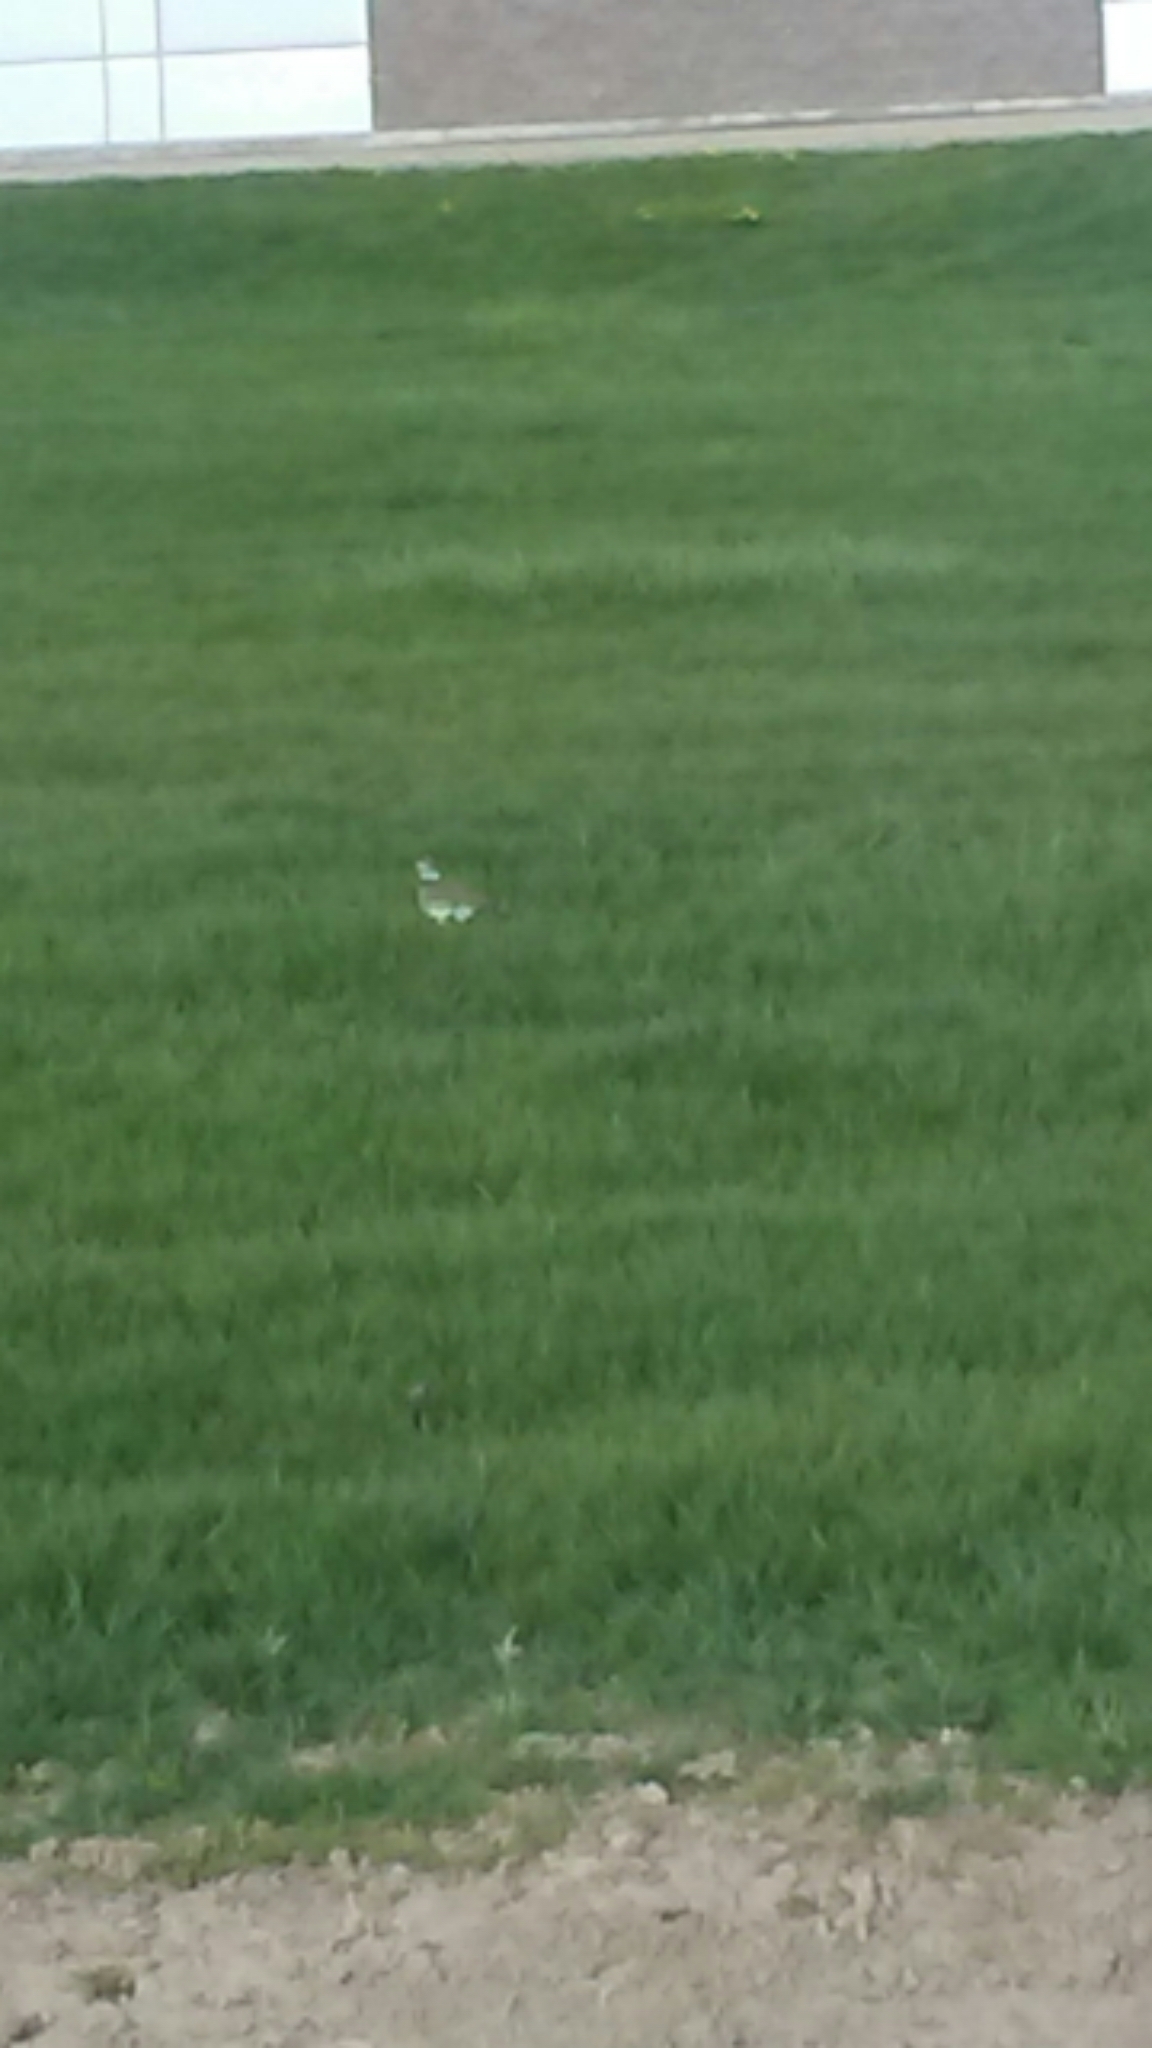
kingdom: Animalia
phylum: Chordata
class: Aves
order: Charadriiformes
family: Charadriidae
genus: Charadrius
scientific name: Charadrius vociferus
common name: Killdeer
